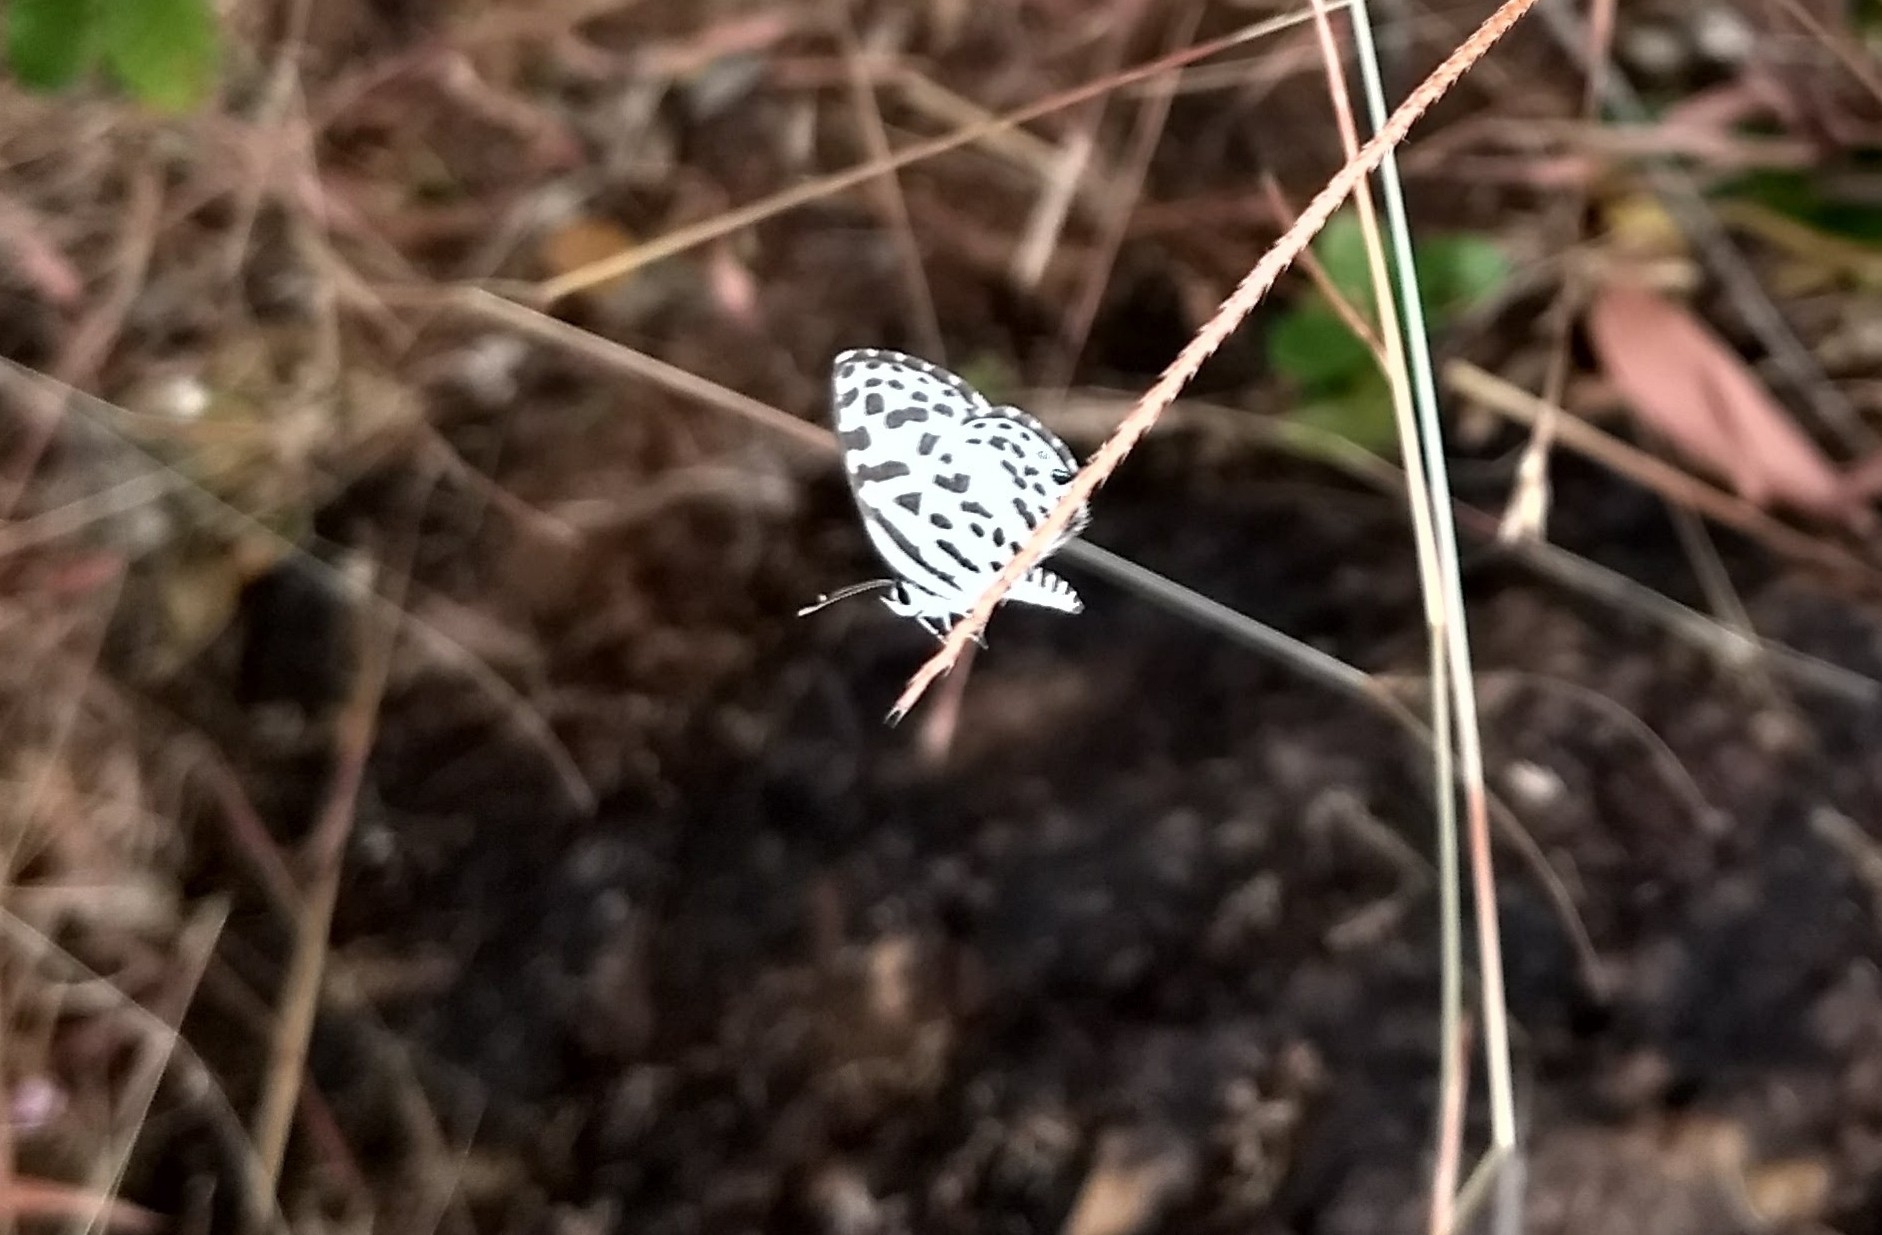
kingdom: Animalia
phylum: Arthropoda
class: Insecta
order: Lepidoptera
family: Lycaenidae
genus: Castalius
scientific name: Castalius rosimon
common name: Common pierrot
